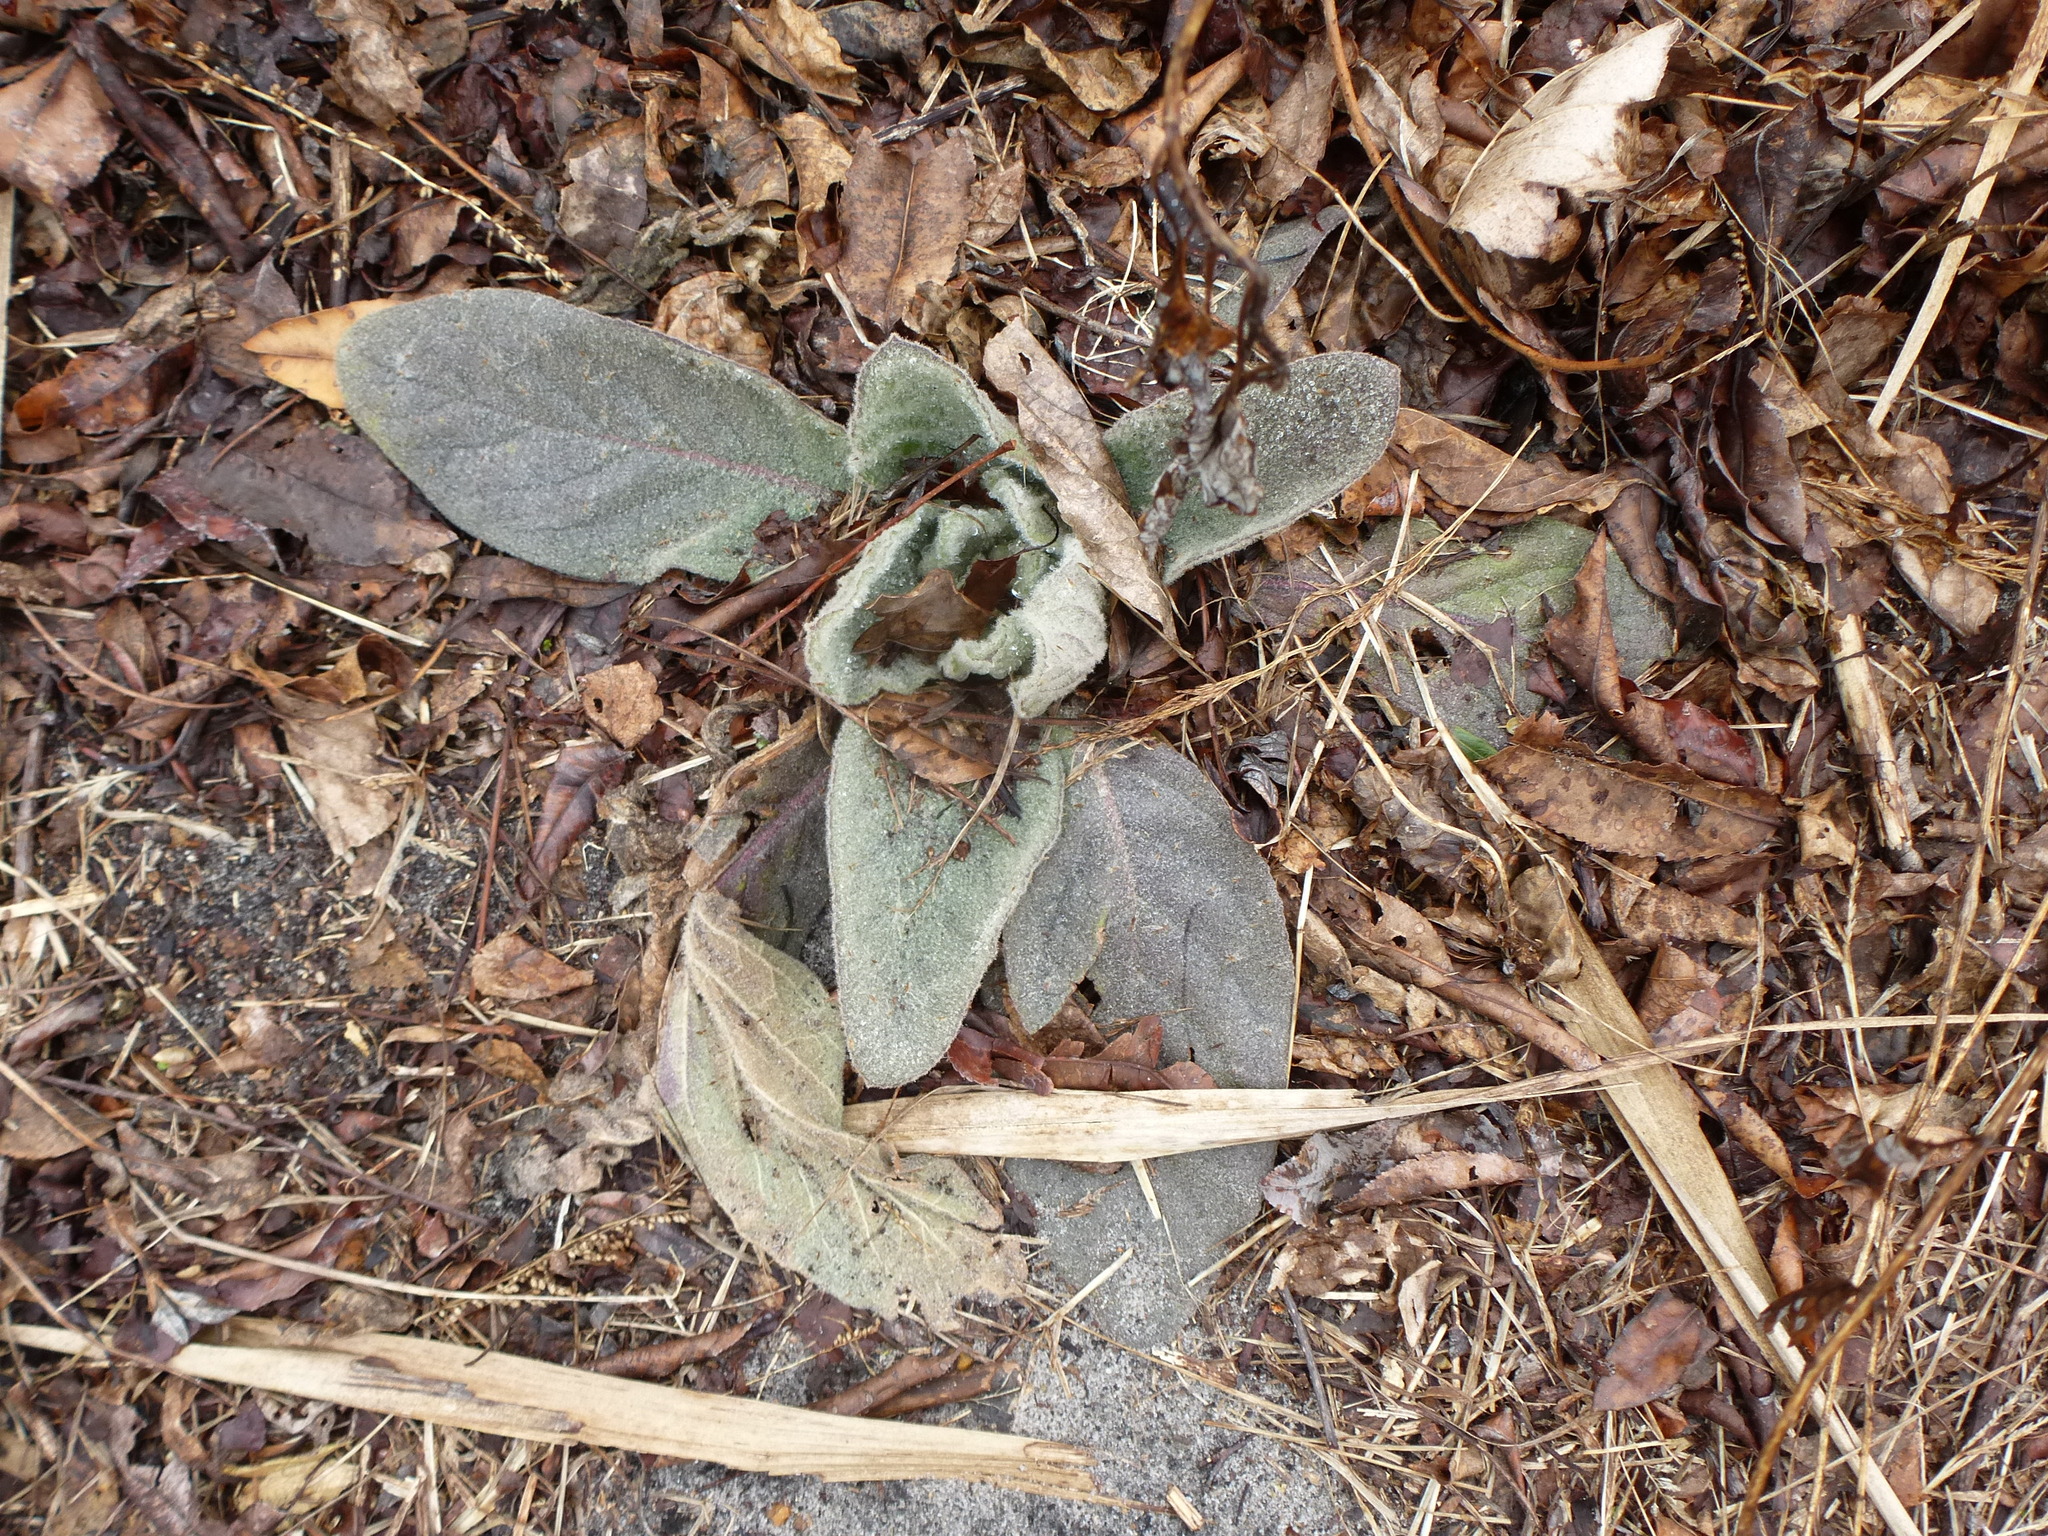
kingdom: Plantae
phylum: Tracheophyta
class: Magnoliopsida
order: Lamiales
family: Scrophulariaceae
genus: Verbascum
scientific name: Verbascum thapsus
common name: Common mullein
